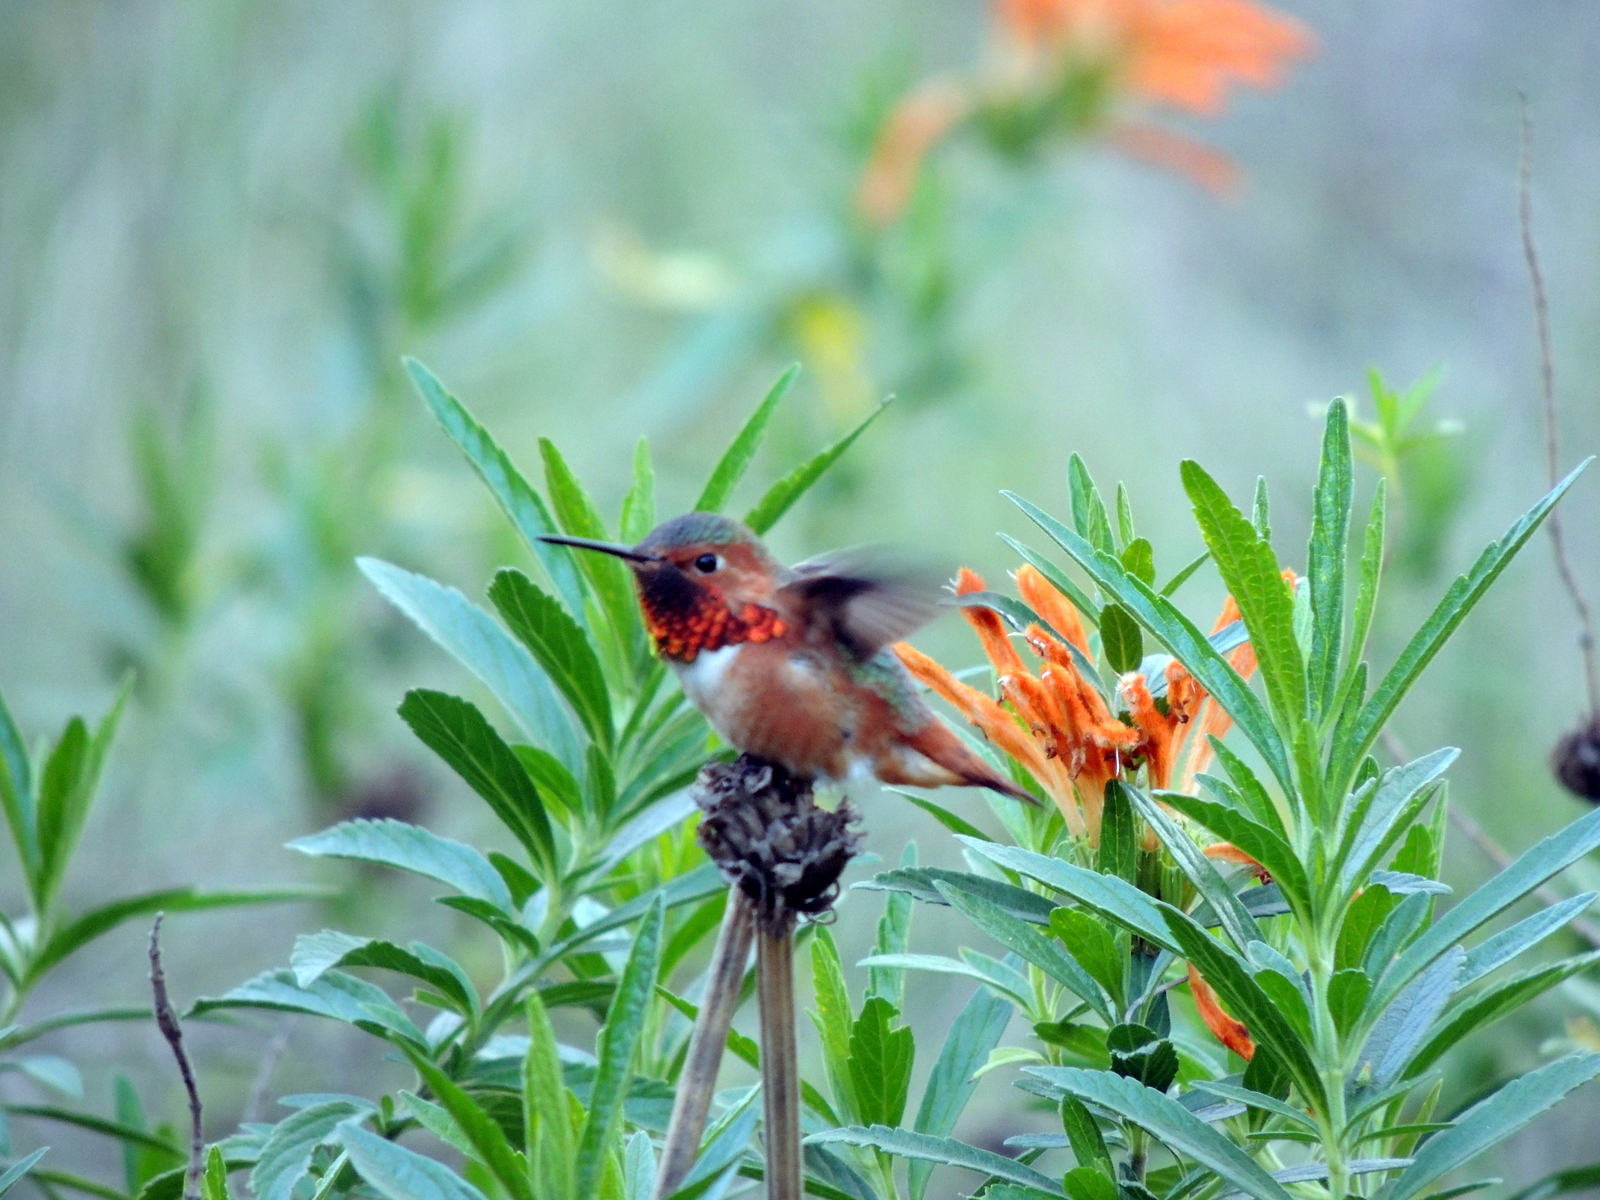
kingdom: Animalia
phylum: Chordata
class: Aves
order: Apodiformes
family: Trochilidae
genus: Selasphorus
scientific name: Selasphorus sasin
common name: Allen's hummingbird
